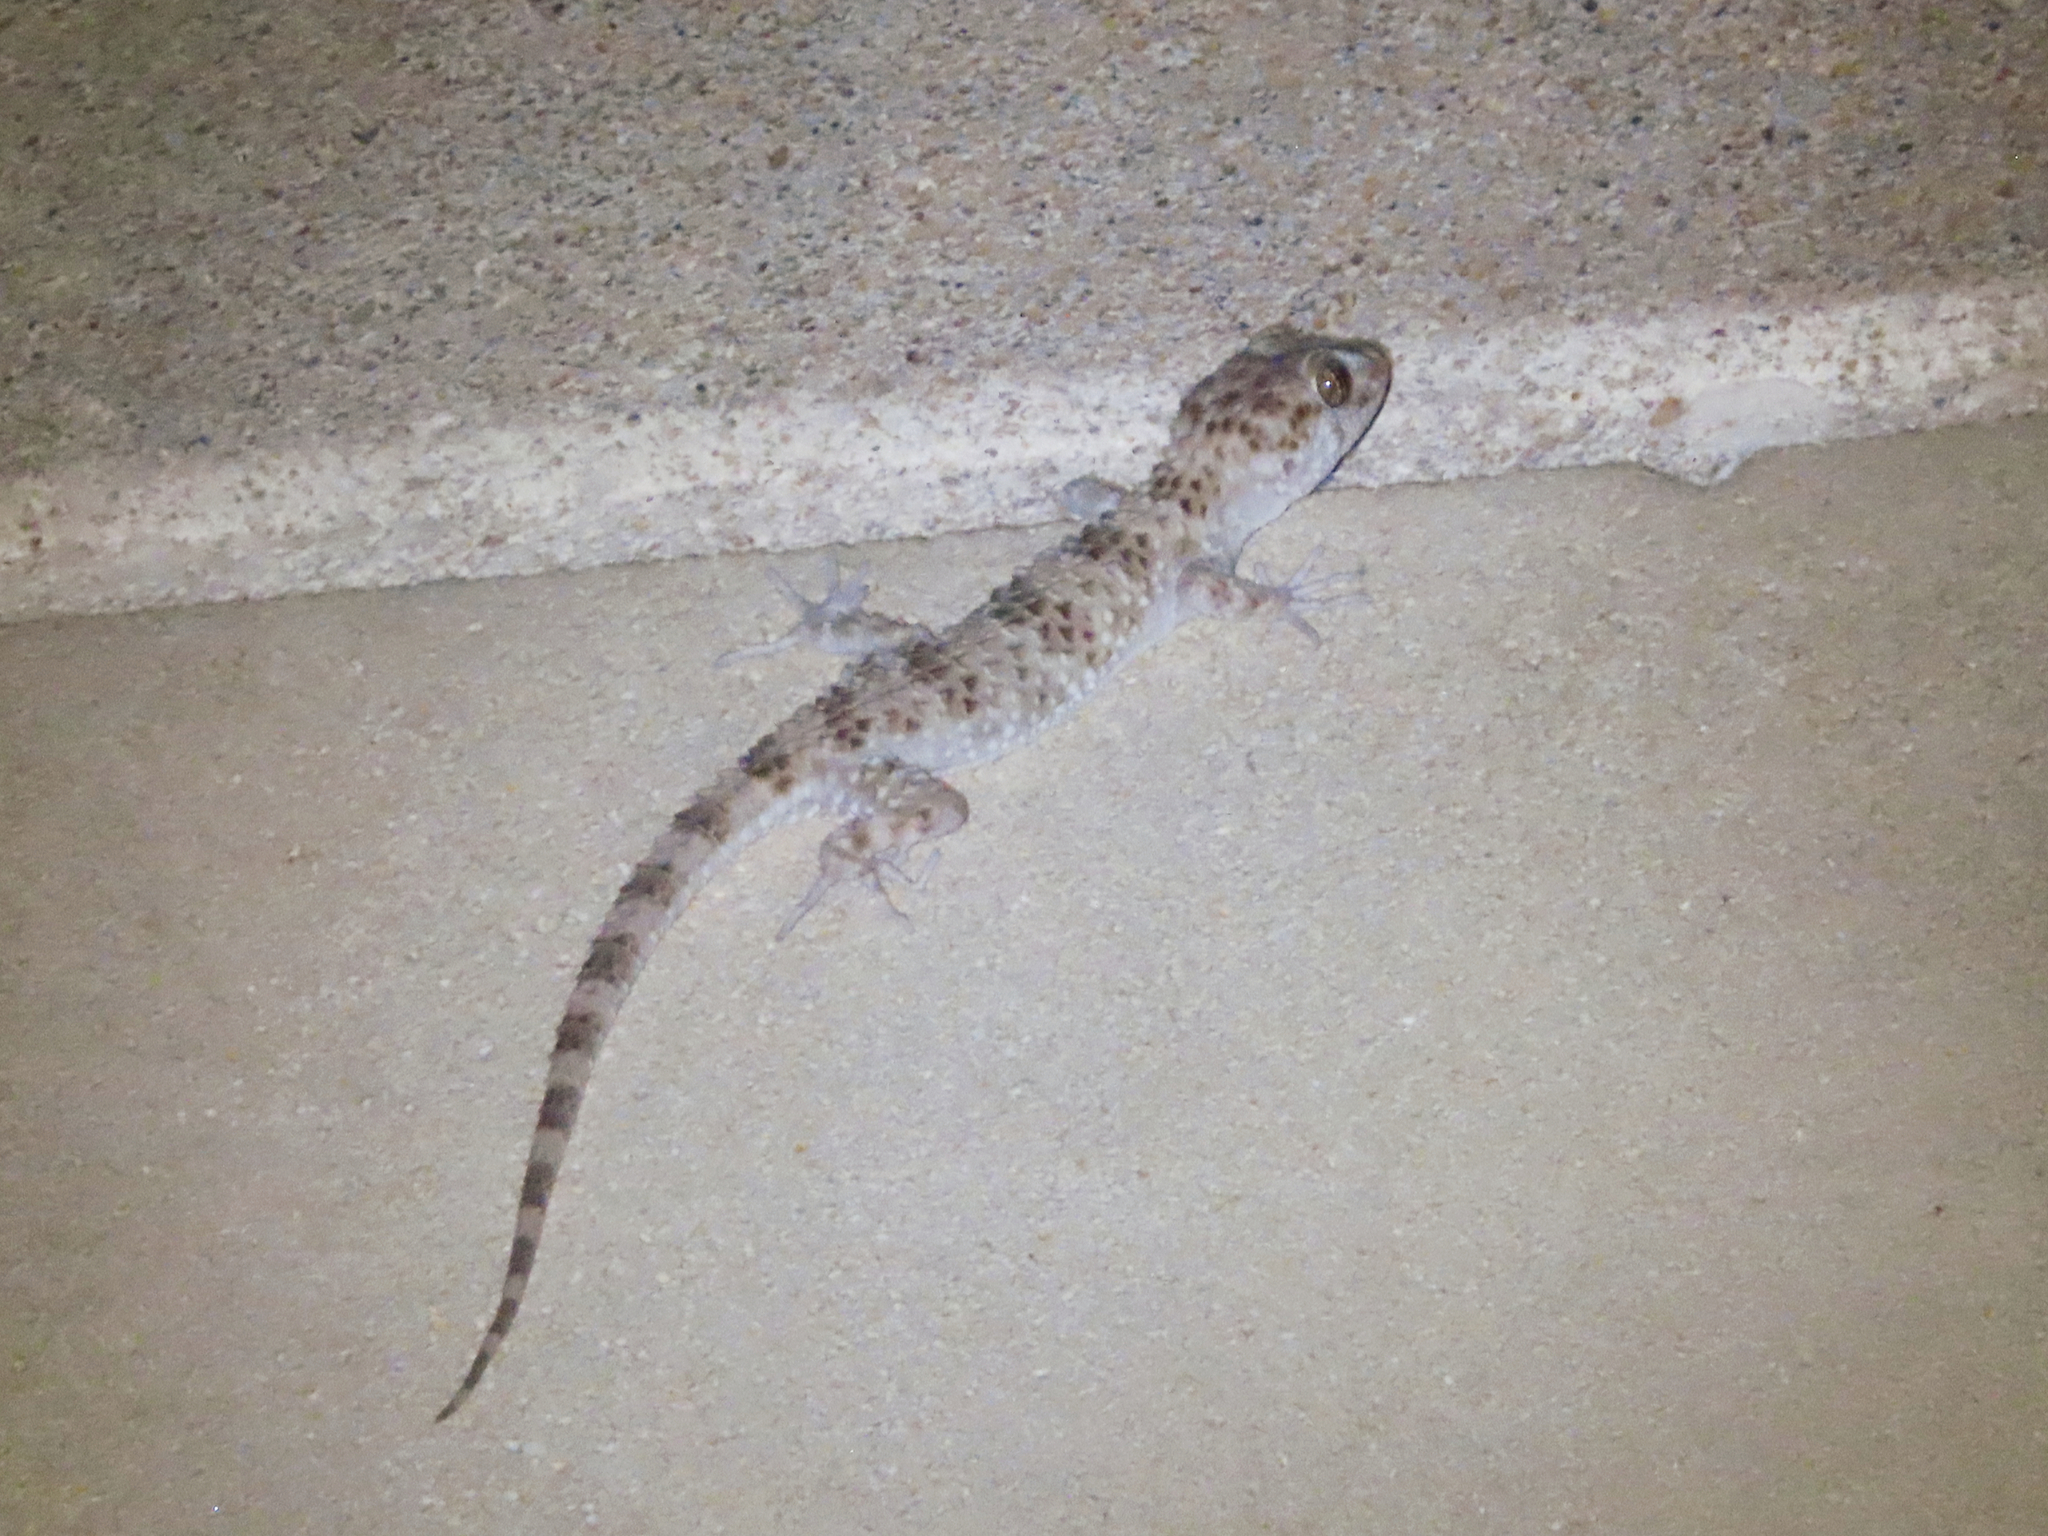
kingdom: Animalia
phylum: Chordata
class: Squamata
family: Gekkonidae
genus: Tenuidactylus
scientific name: Tenuidactylus caspius
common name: Caspian bent-toed gecko
